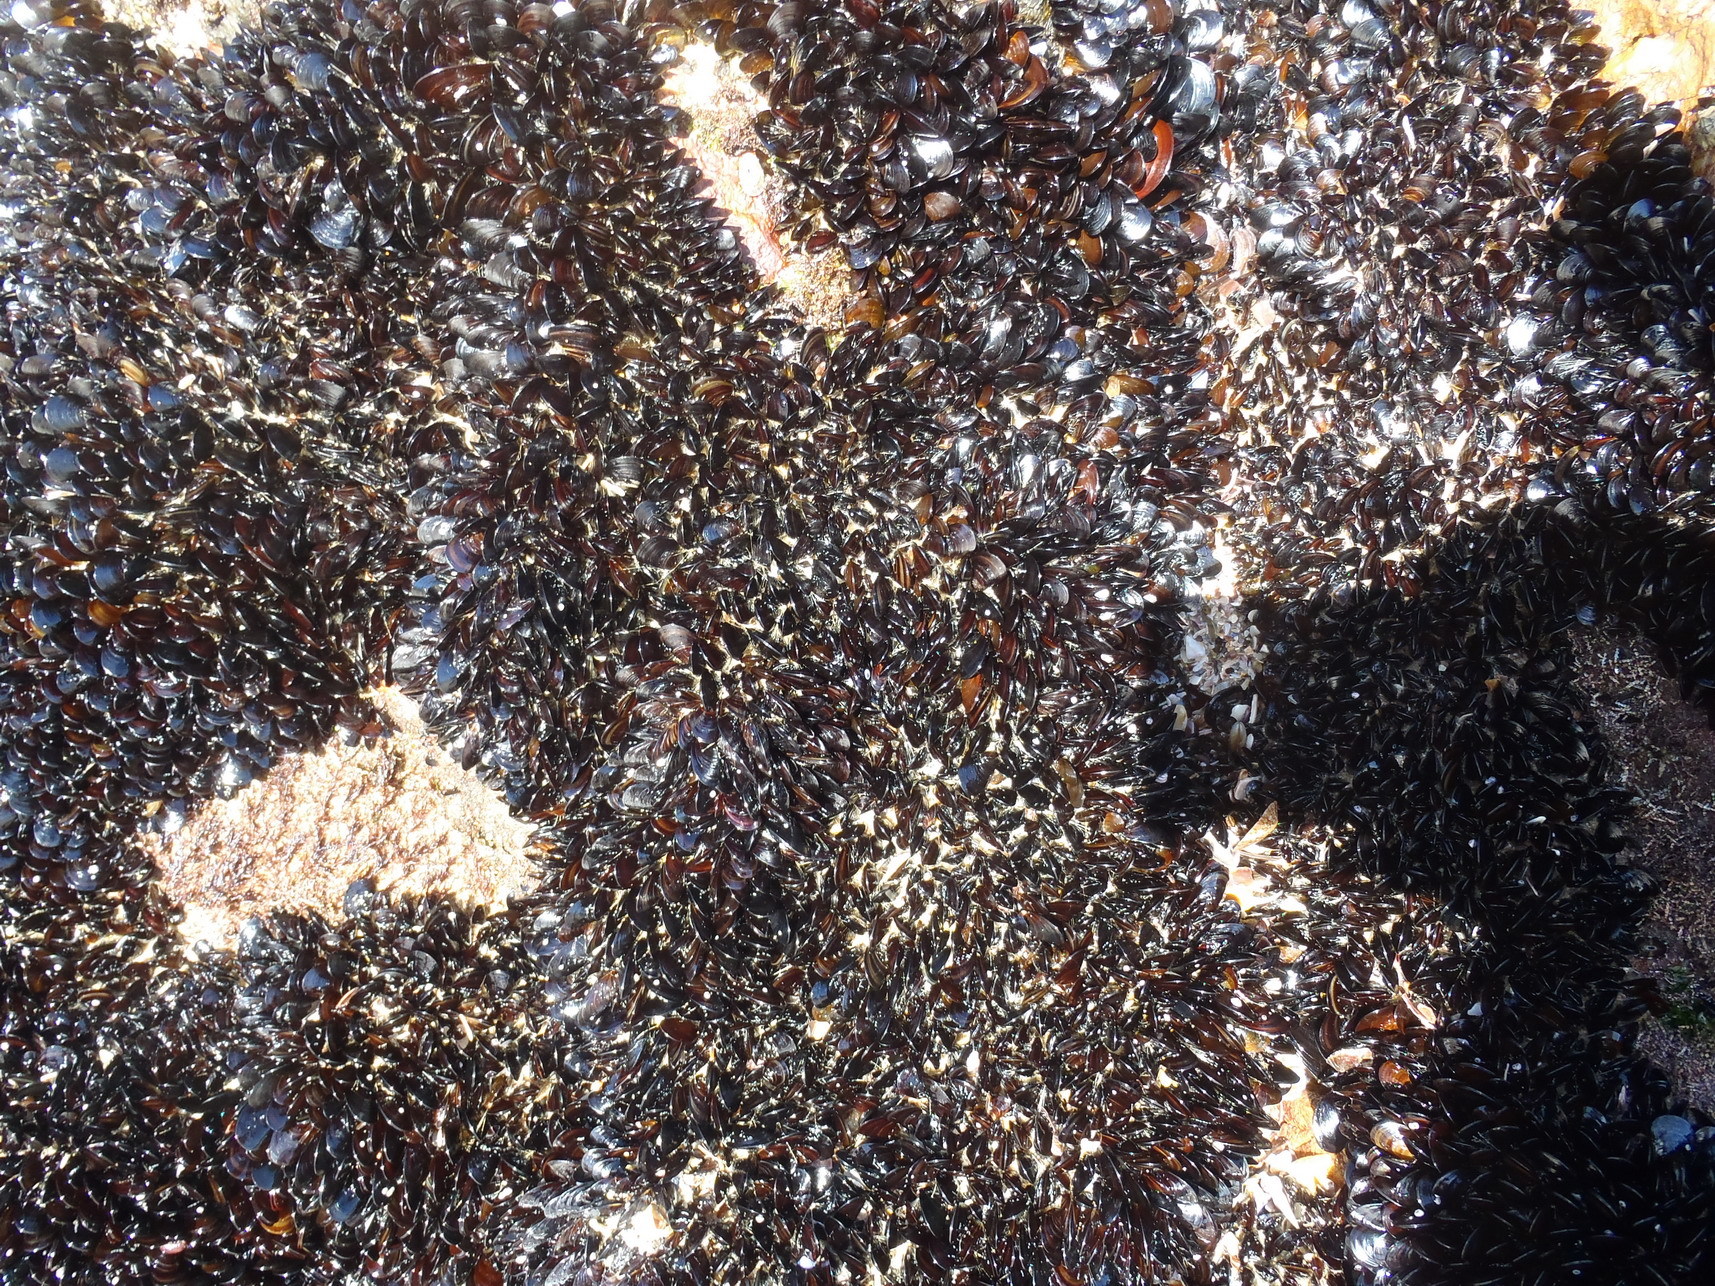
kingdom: Animalia
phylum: Mollusca
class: Bivalvia
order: Mytilida
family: Mytilidae
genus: Perna
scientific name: Perna perna
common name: Mexilhao mussel
